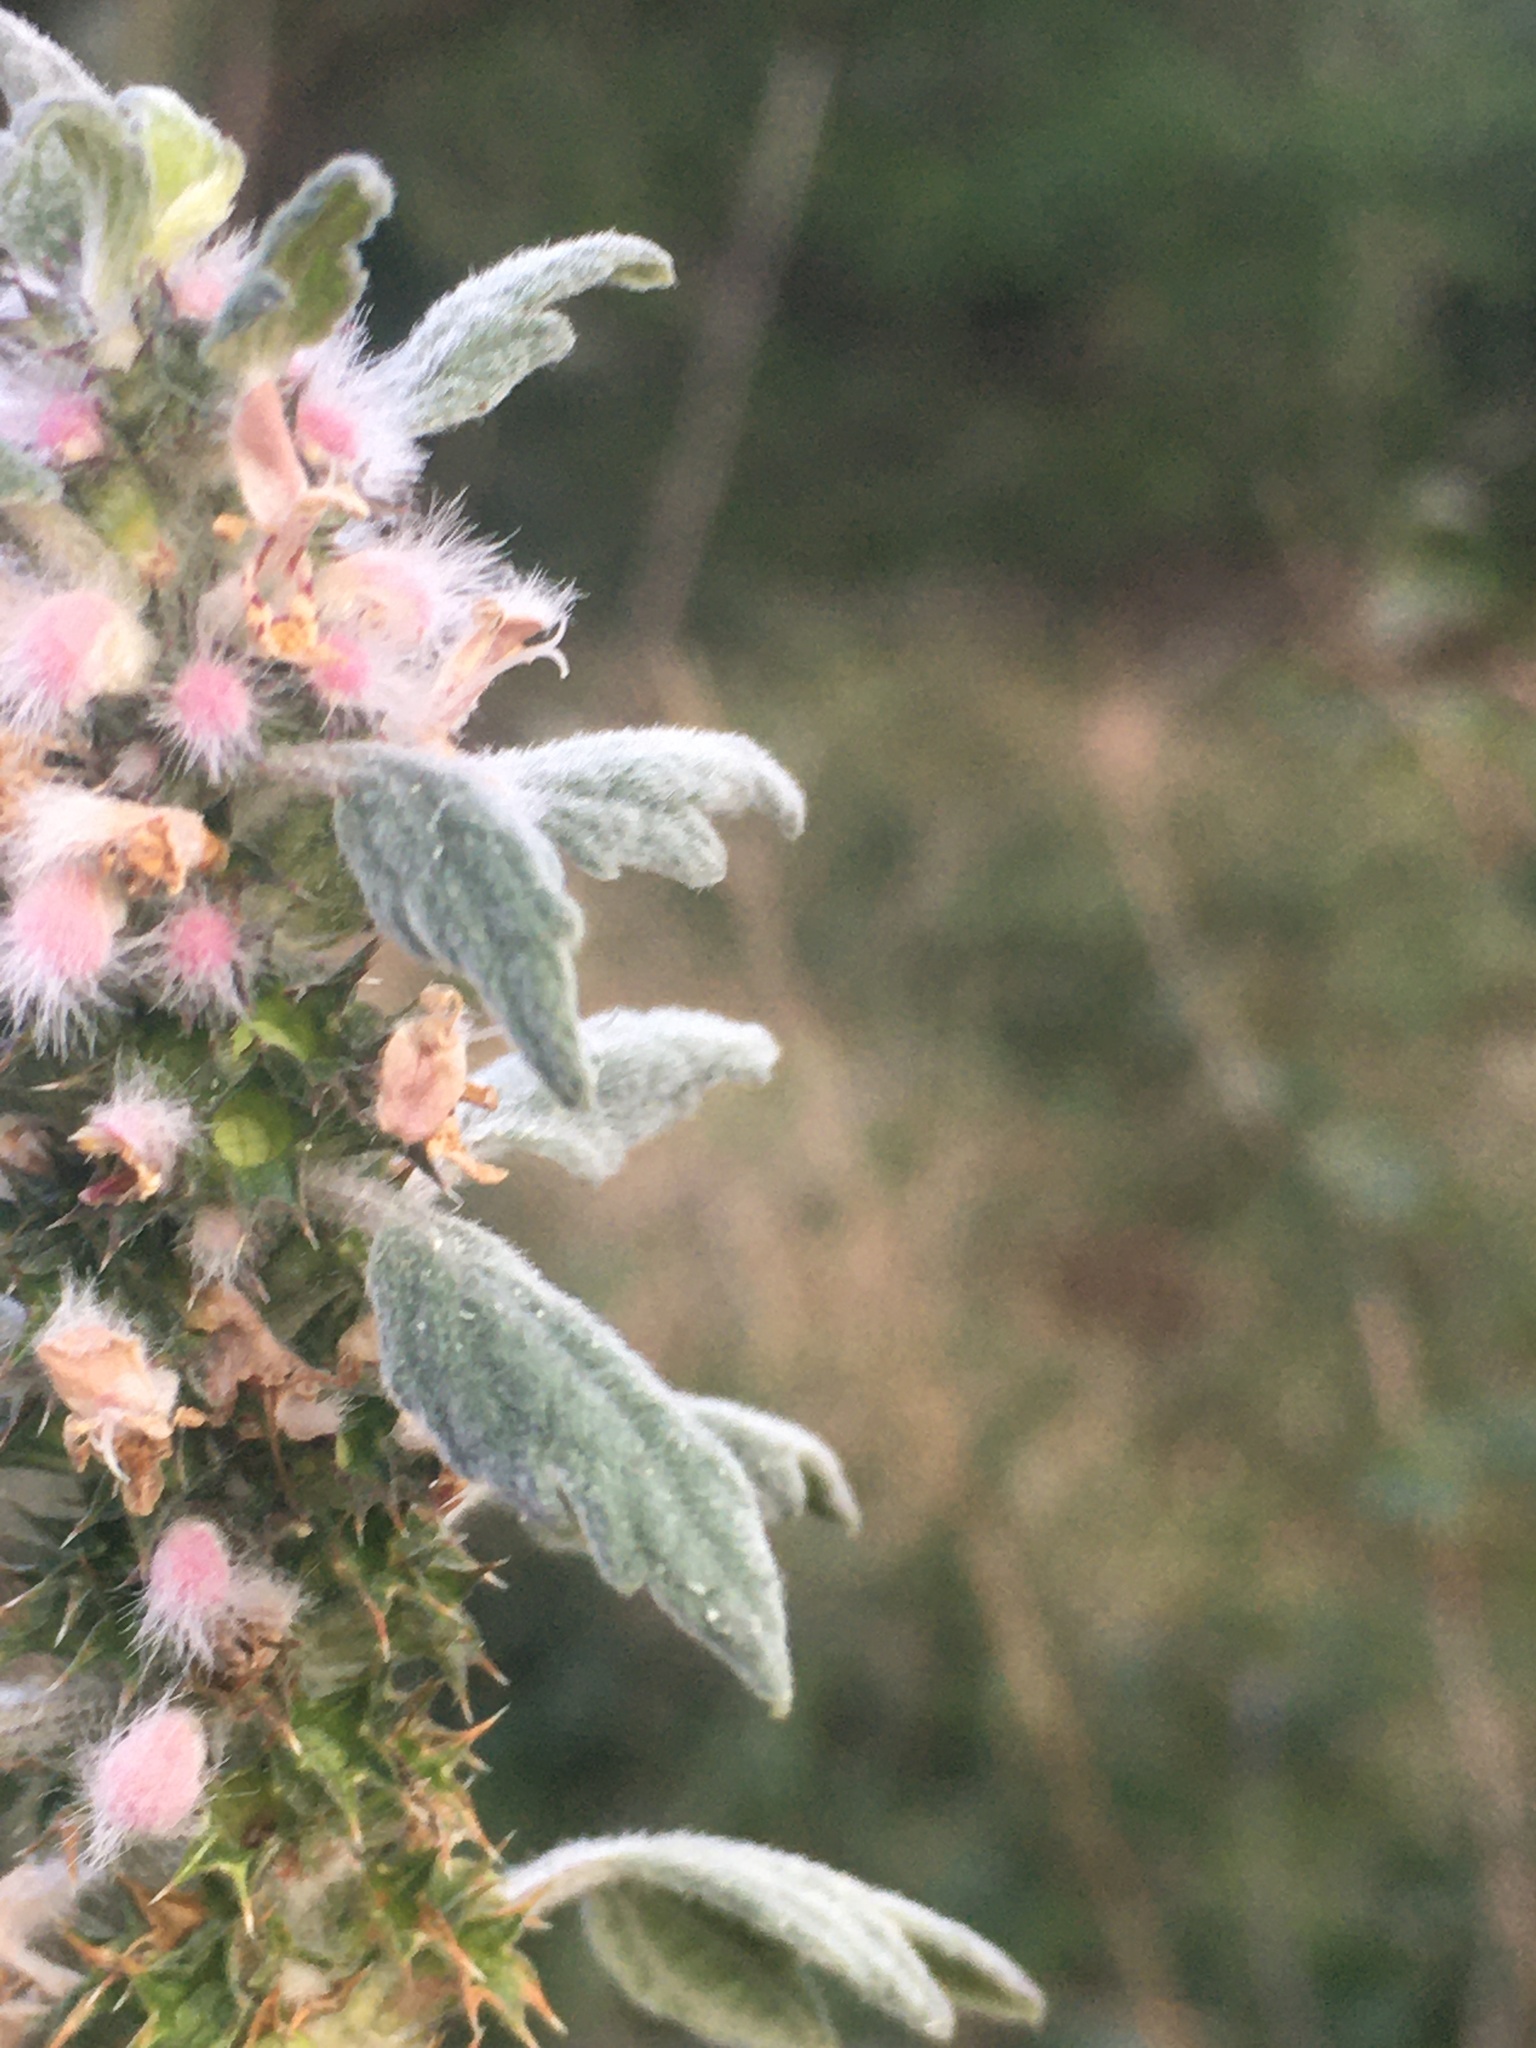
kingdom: Plantae
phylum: Tracheophyta
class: Magnoliopsida
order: Lamiales
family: Lamiaceae
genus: Leonurus
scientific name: Leonurus quinquelobatus
